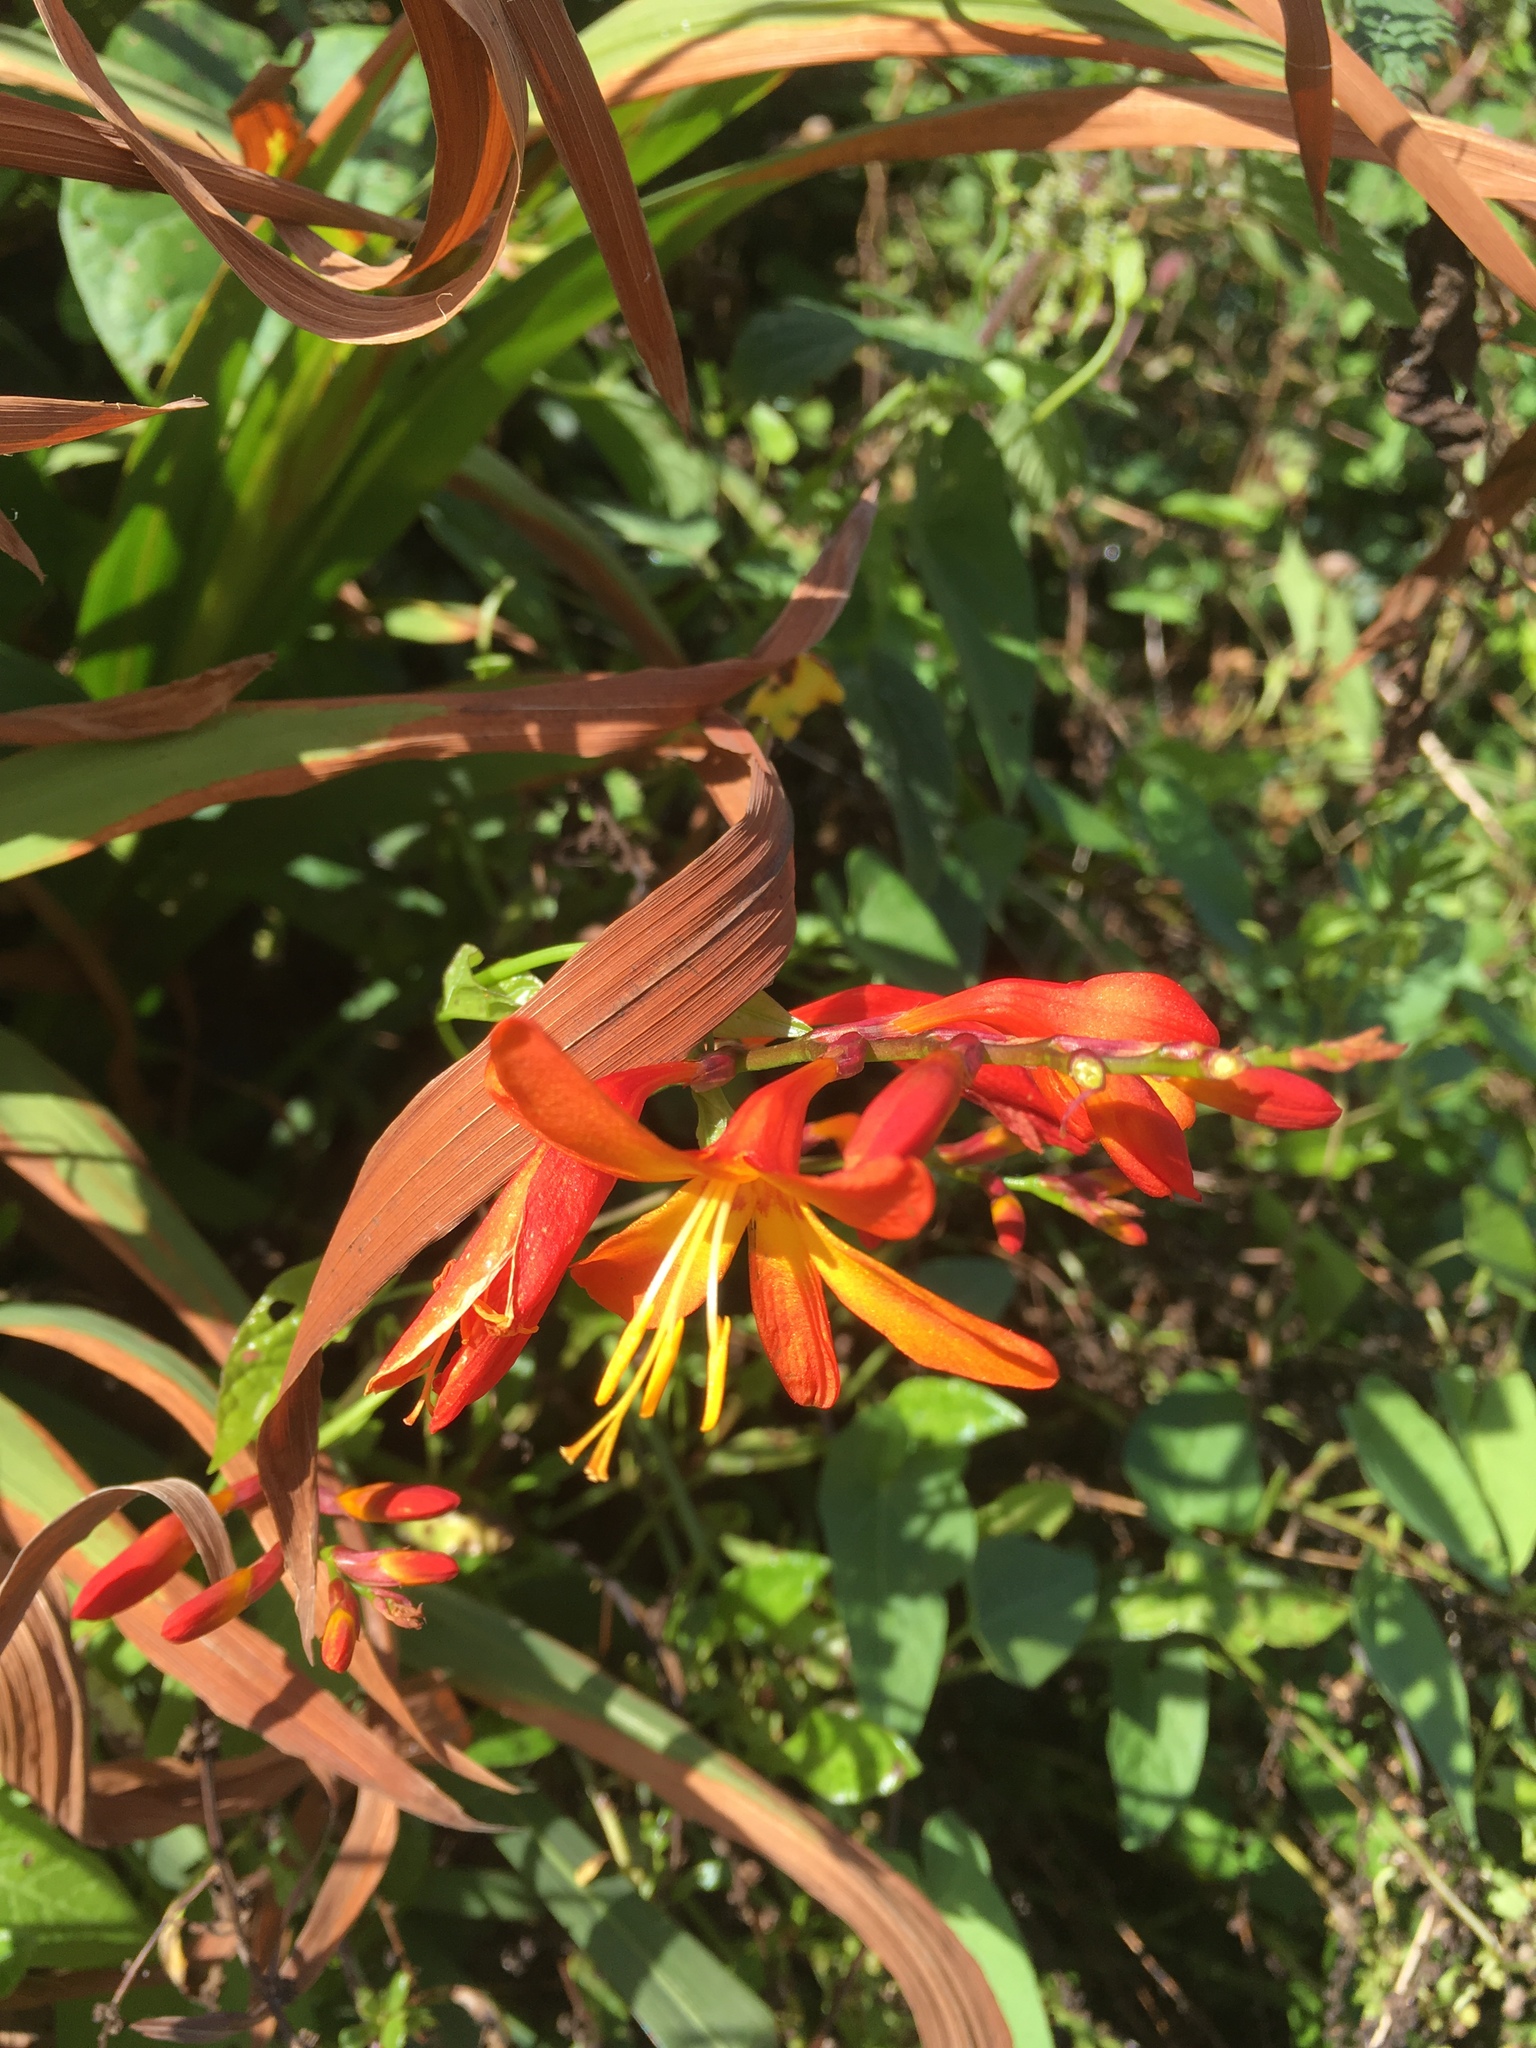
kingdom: Plantae
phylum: Tracheophyta
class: Liliopsida
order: Asparagales
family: Iridaceae
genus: Crocosmia
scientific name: Crocosmia crocosmiiflora
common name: Montbretia
